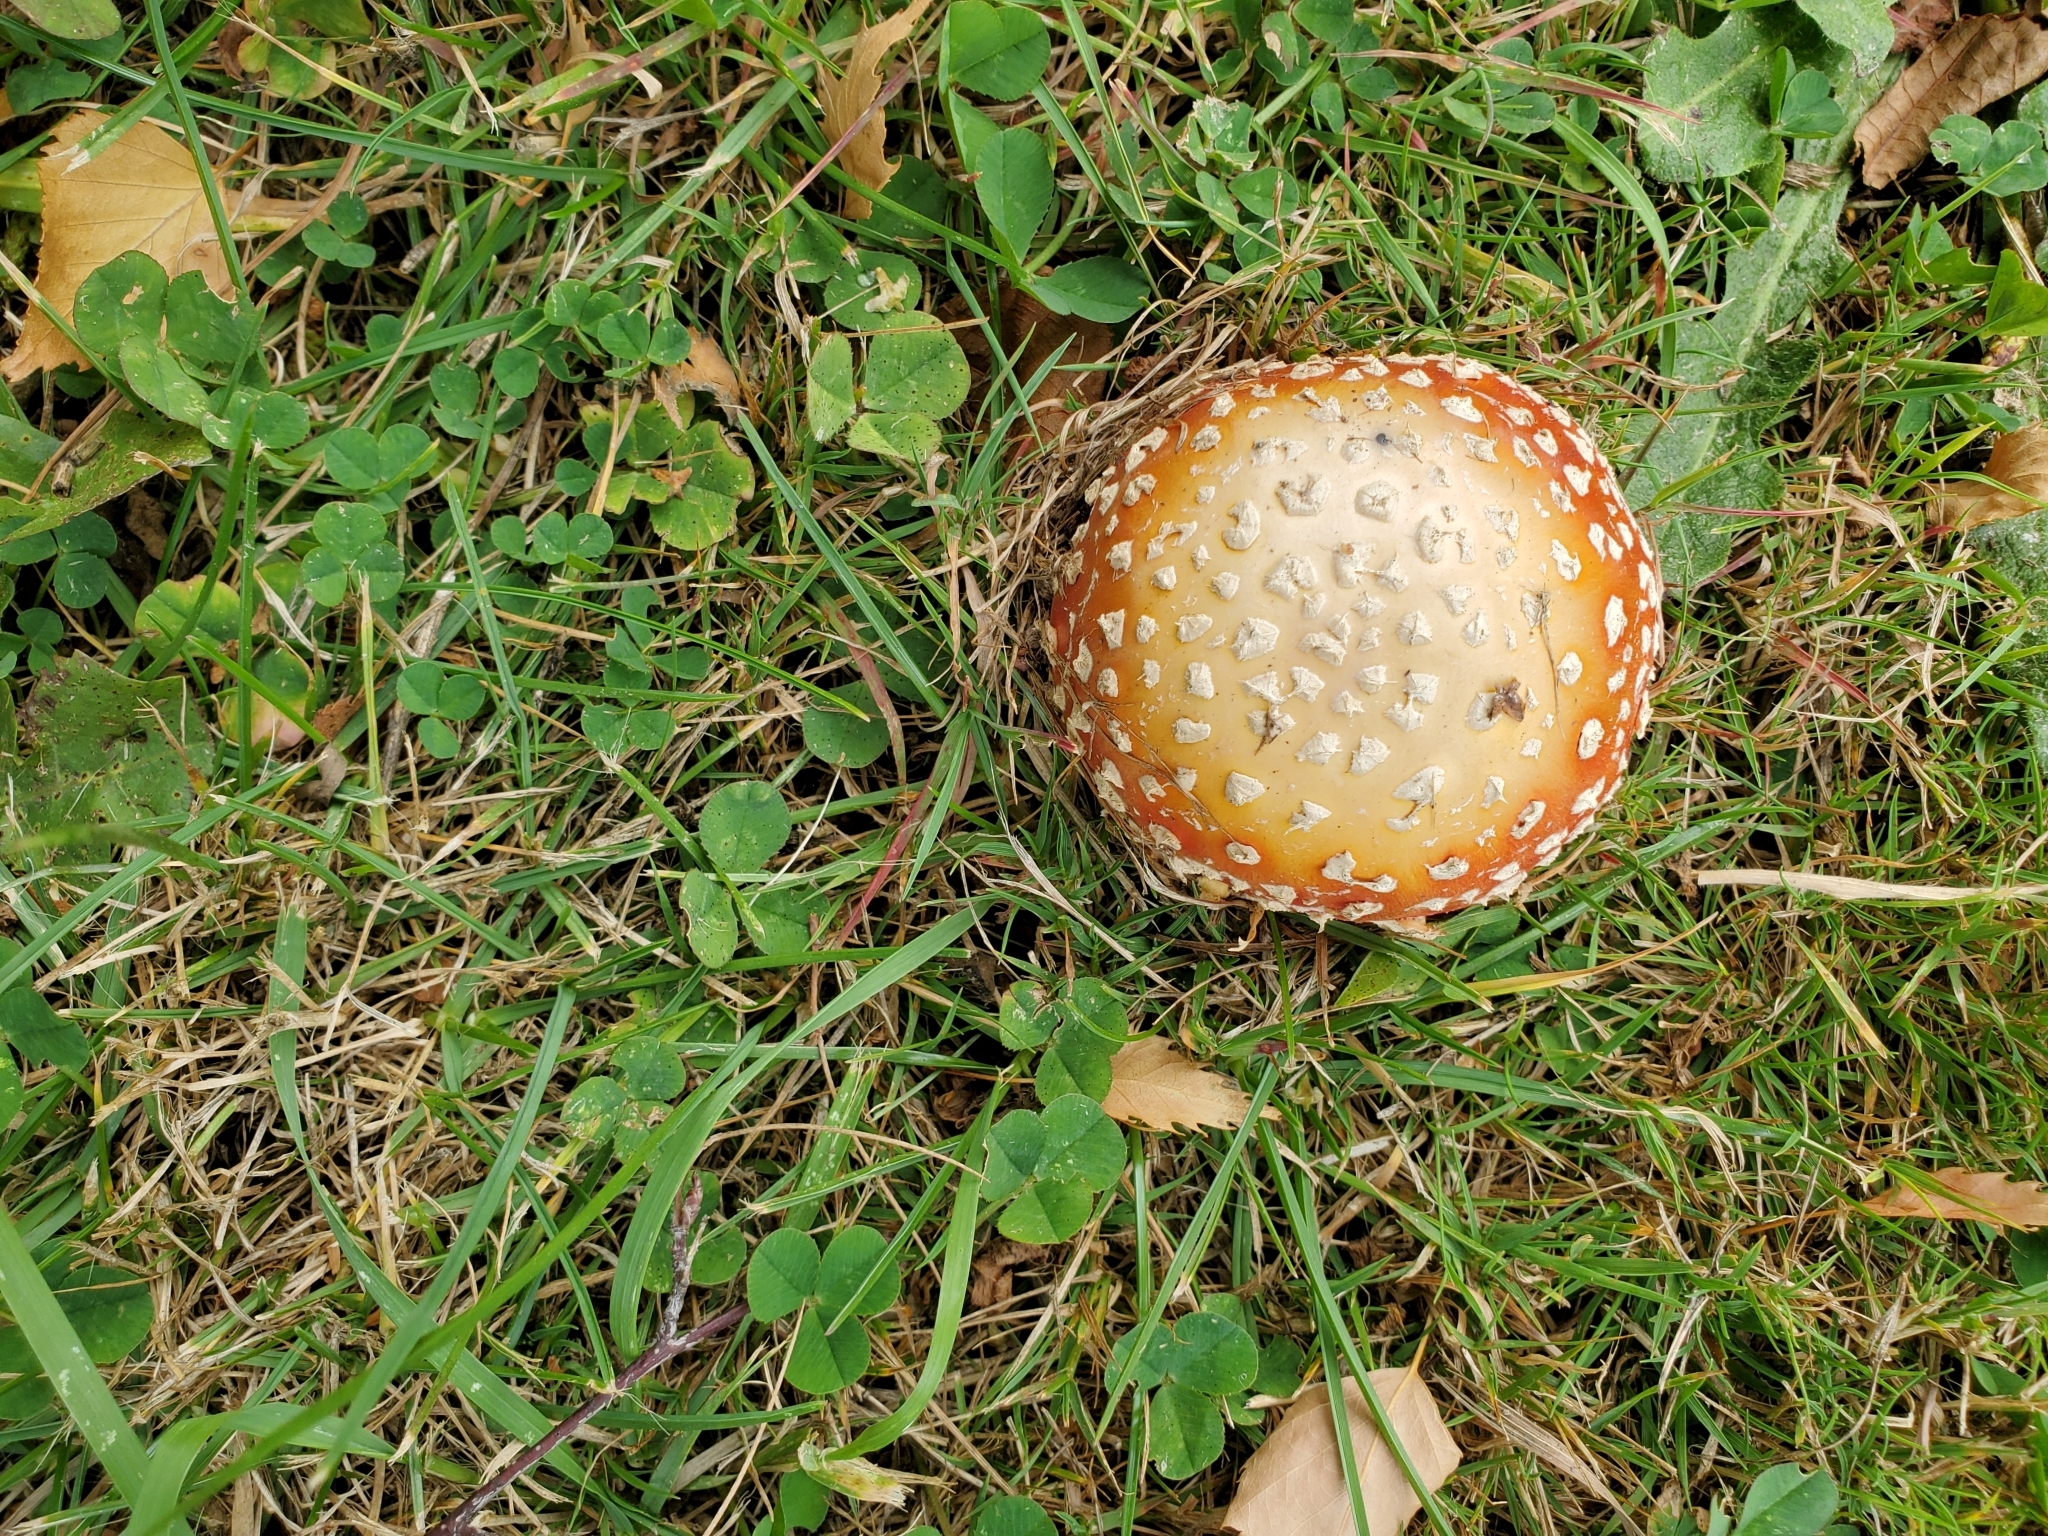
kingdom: Fungi
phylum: Basidiomycota
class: Agaricomycetes
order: Agaricales
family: Amanitaceae
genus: Amanita
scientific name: Amanita muscaria
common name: Fly agaric
